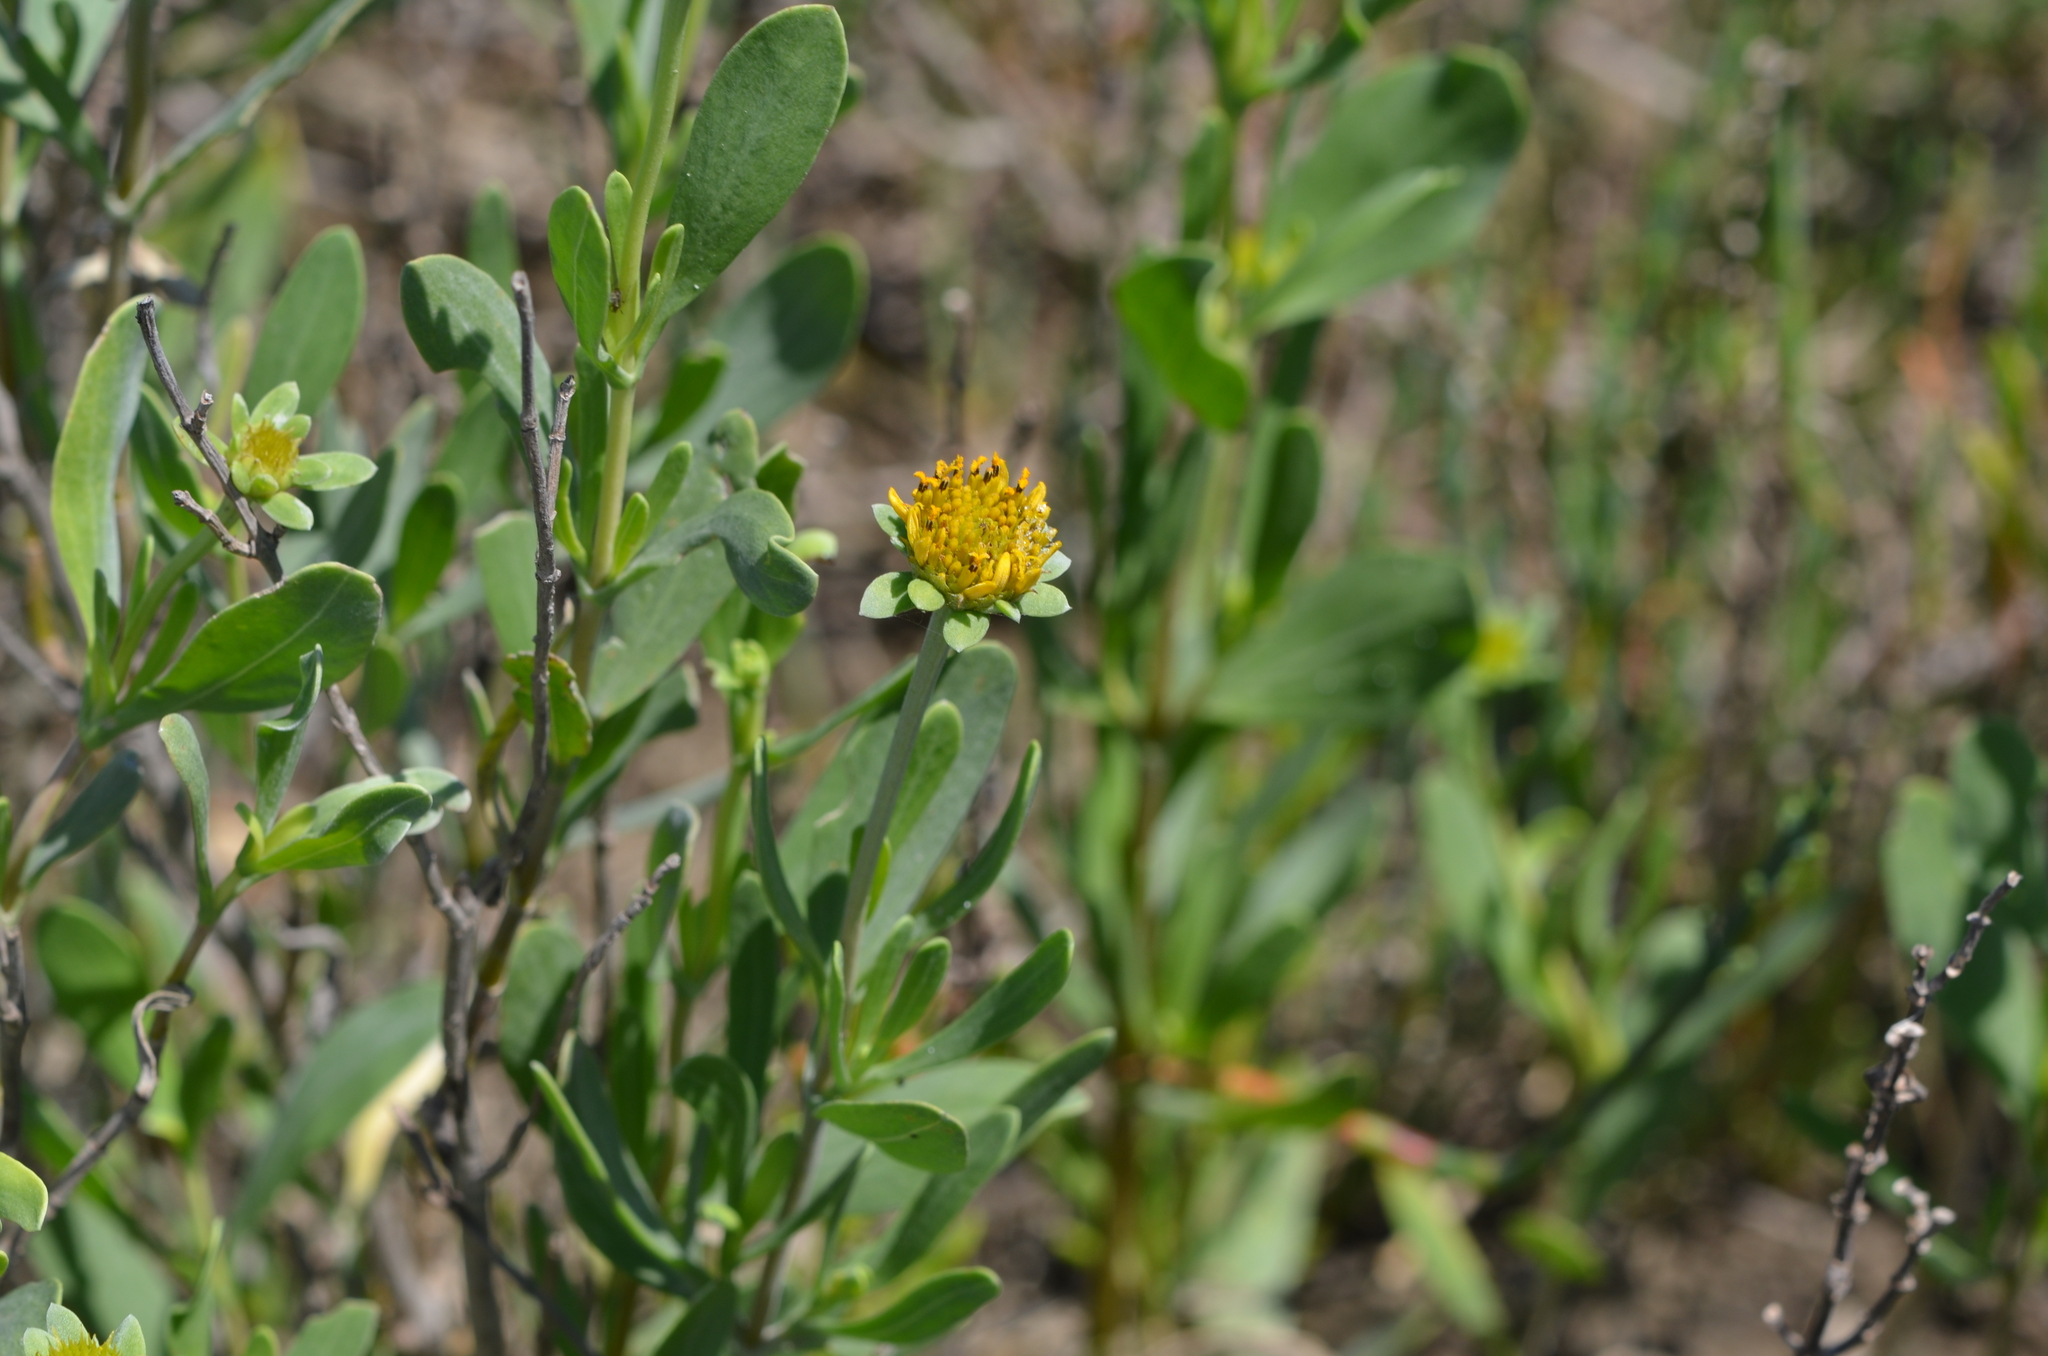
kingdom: Plantae
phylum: Tracheophyta
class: Magnoliopsida
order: Asterales
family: Asteraceae
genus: Borrichia
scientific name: Borrichia frutescens
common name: Sea oxeye
